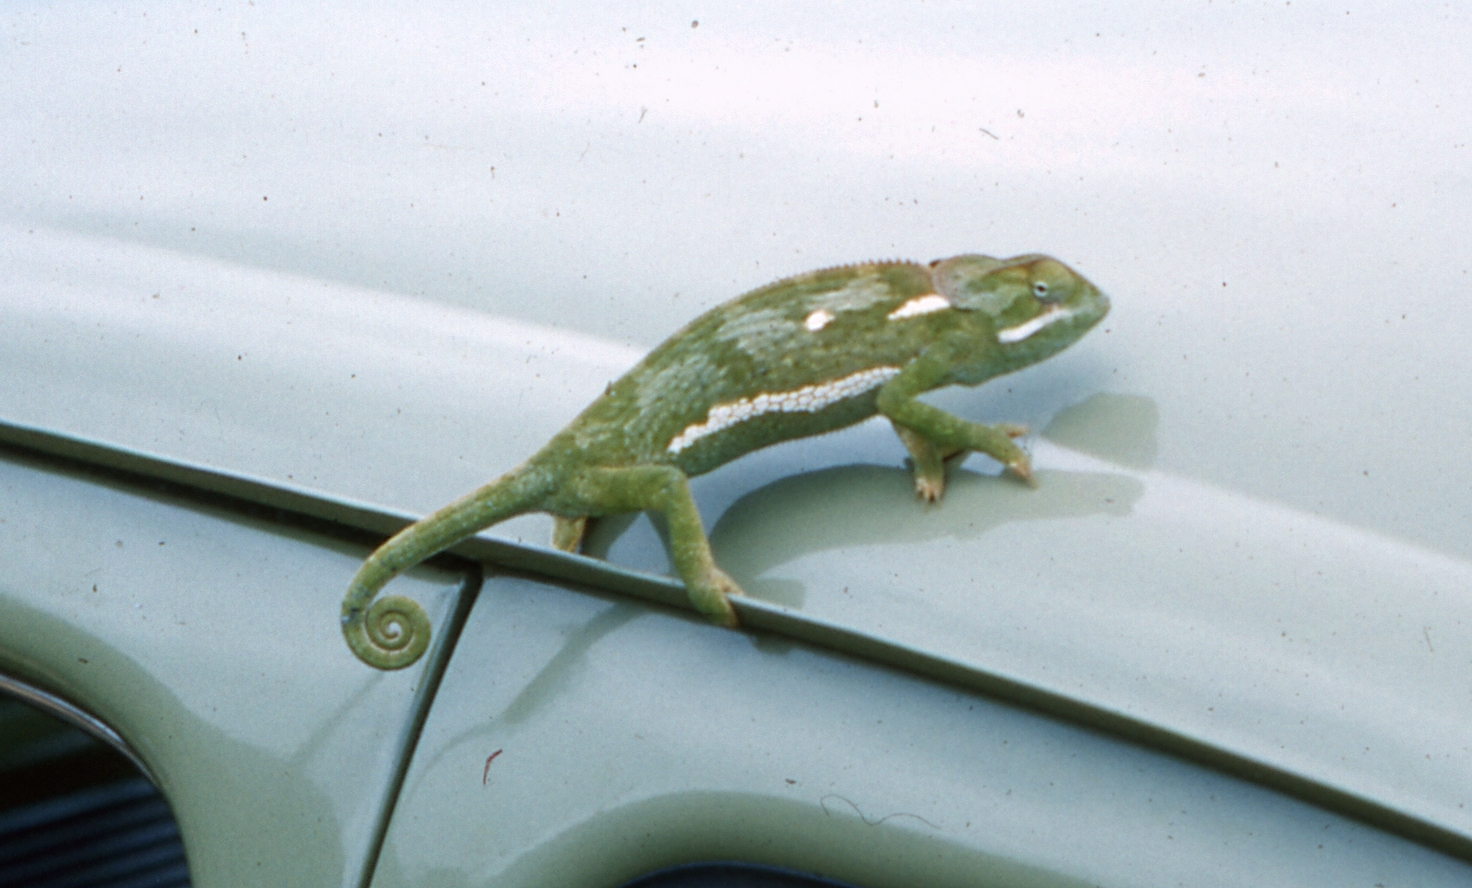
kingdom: Animalia
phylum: Chordata
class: Squamata
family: Chamaeleonidae
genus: Chamaeleo
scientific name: Chamaeleo dilepis
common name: Flapneck chameleon
